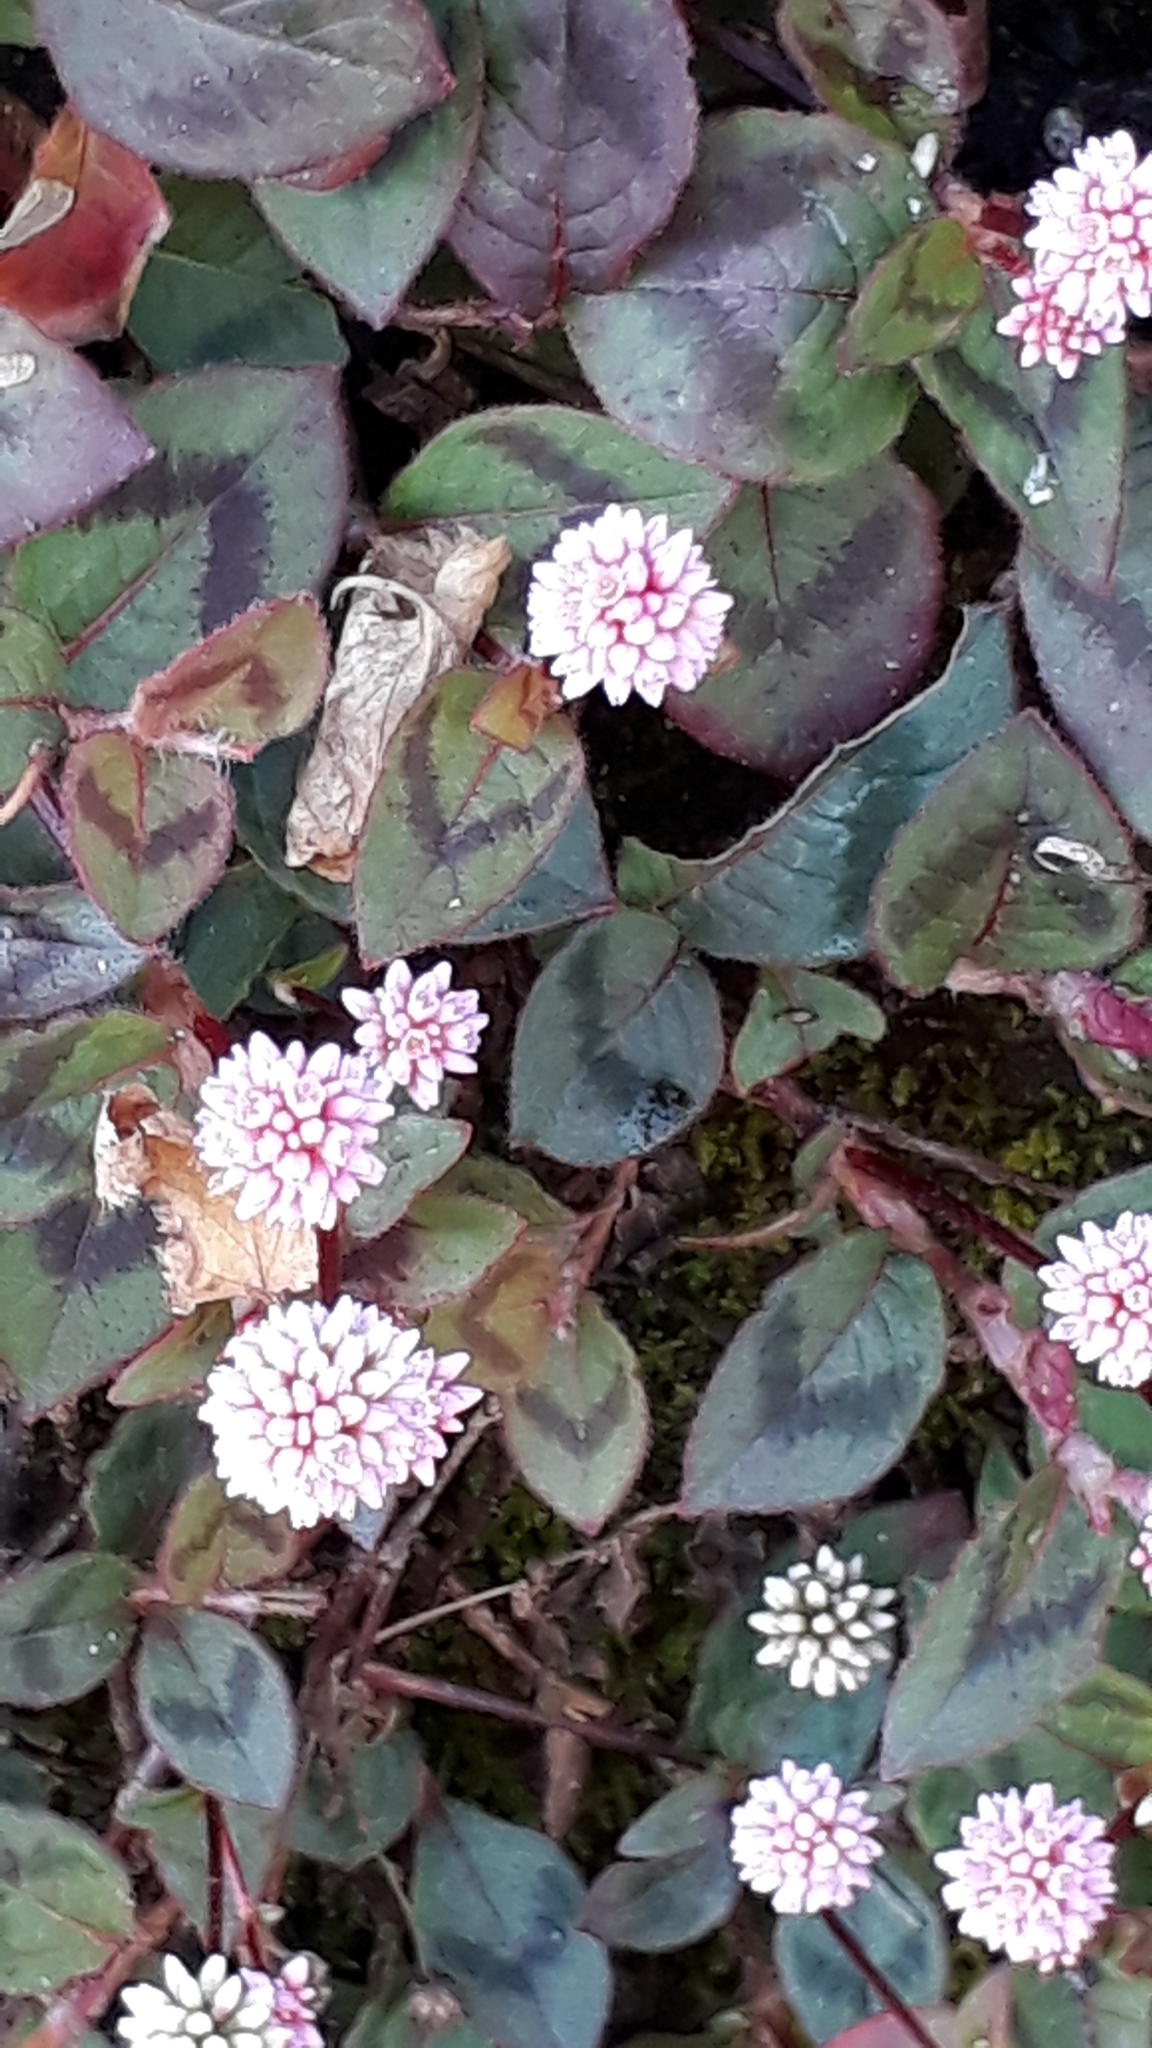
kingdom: Plantae
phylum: Tracheophyta
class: Magnoliopsida
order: Caryophyllales
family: Polygonaceae
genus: Persicaria
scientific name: Persicaria capitata
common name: Pinkhead smartweed
